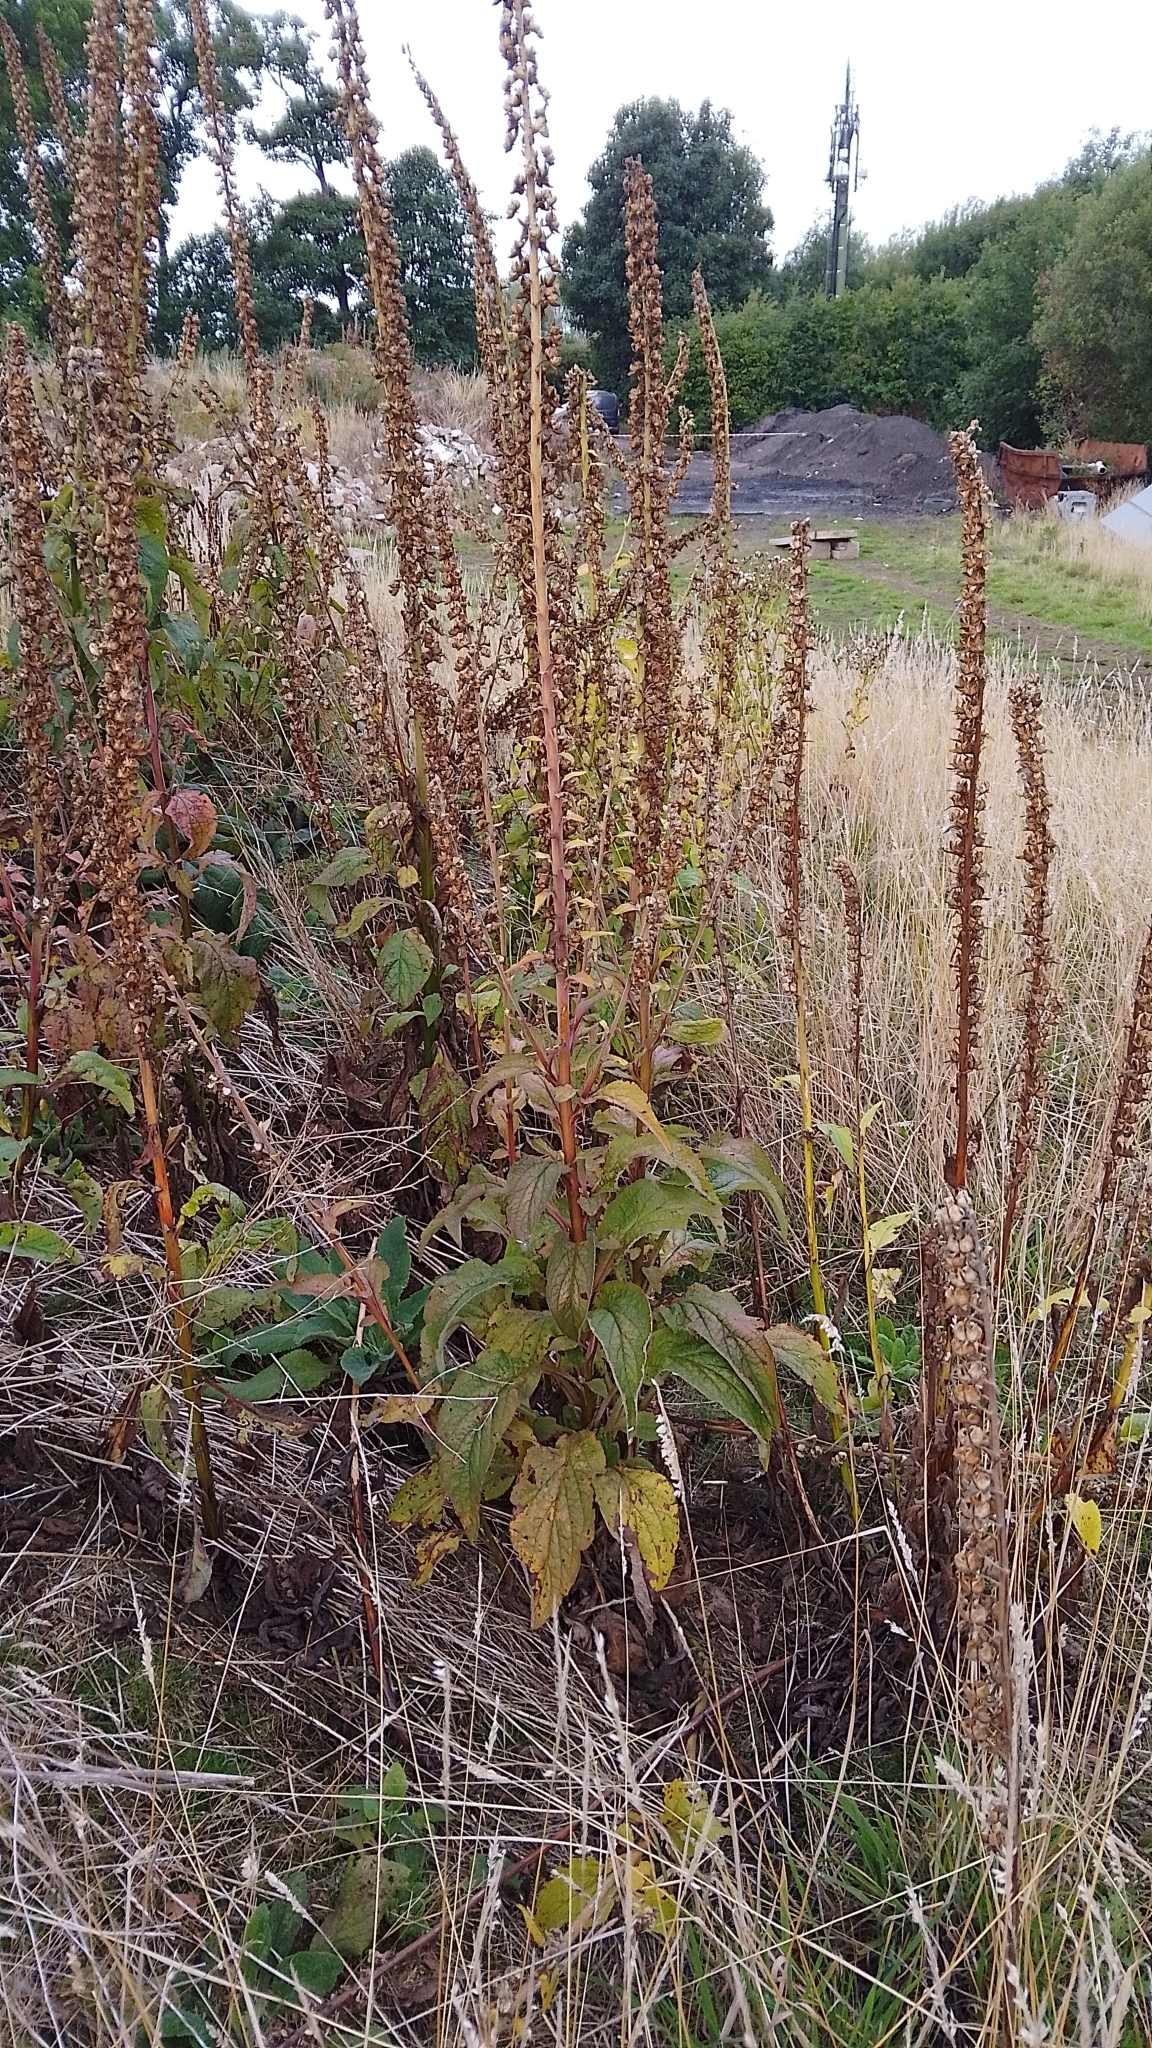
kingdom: Plantae
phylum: Tracheophyta
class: Magnoliopsida
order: Lamiales
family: Plantaginaceae
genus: Digitalis
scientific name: Digitalis purpurea
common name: Foxglove
